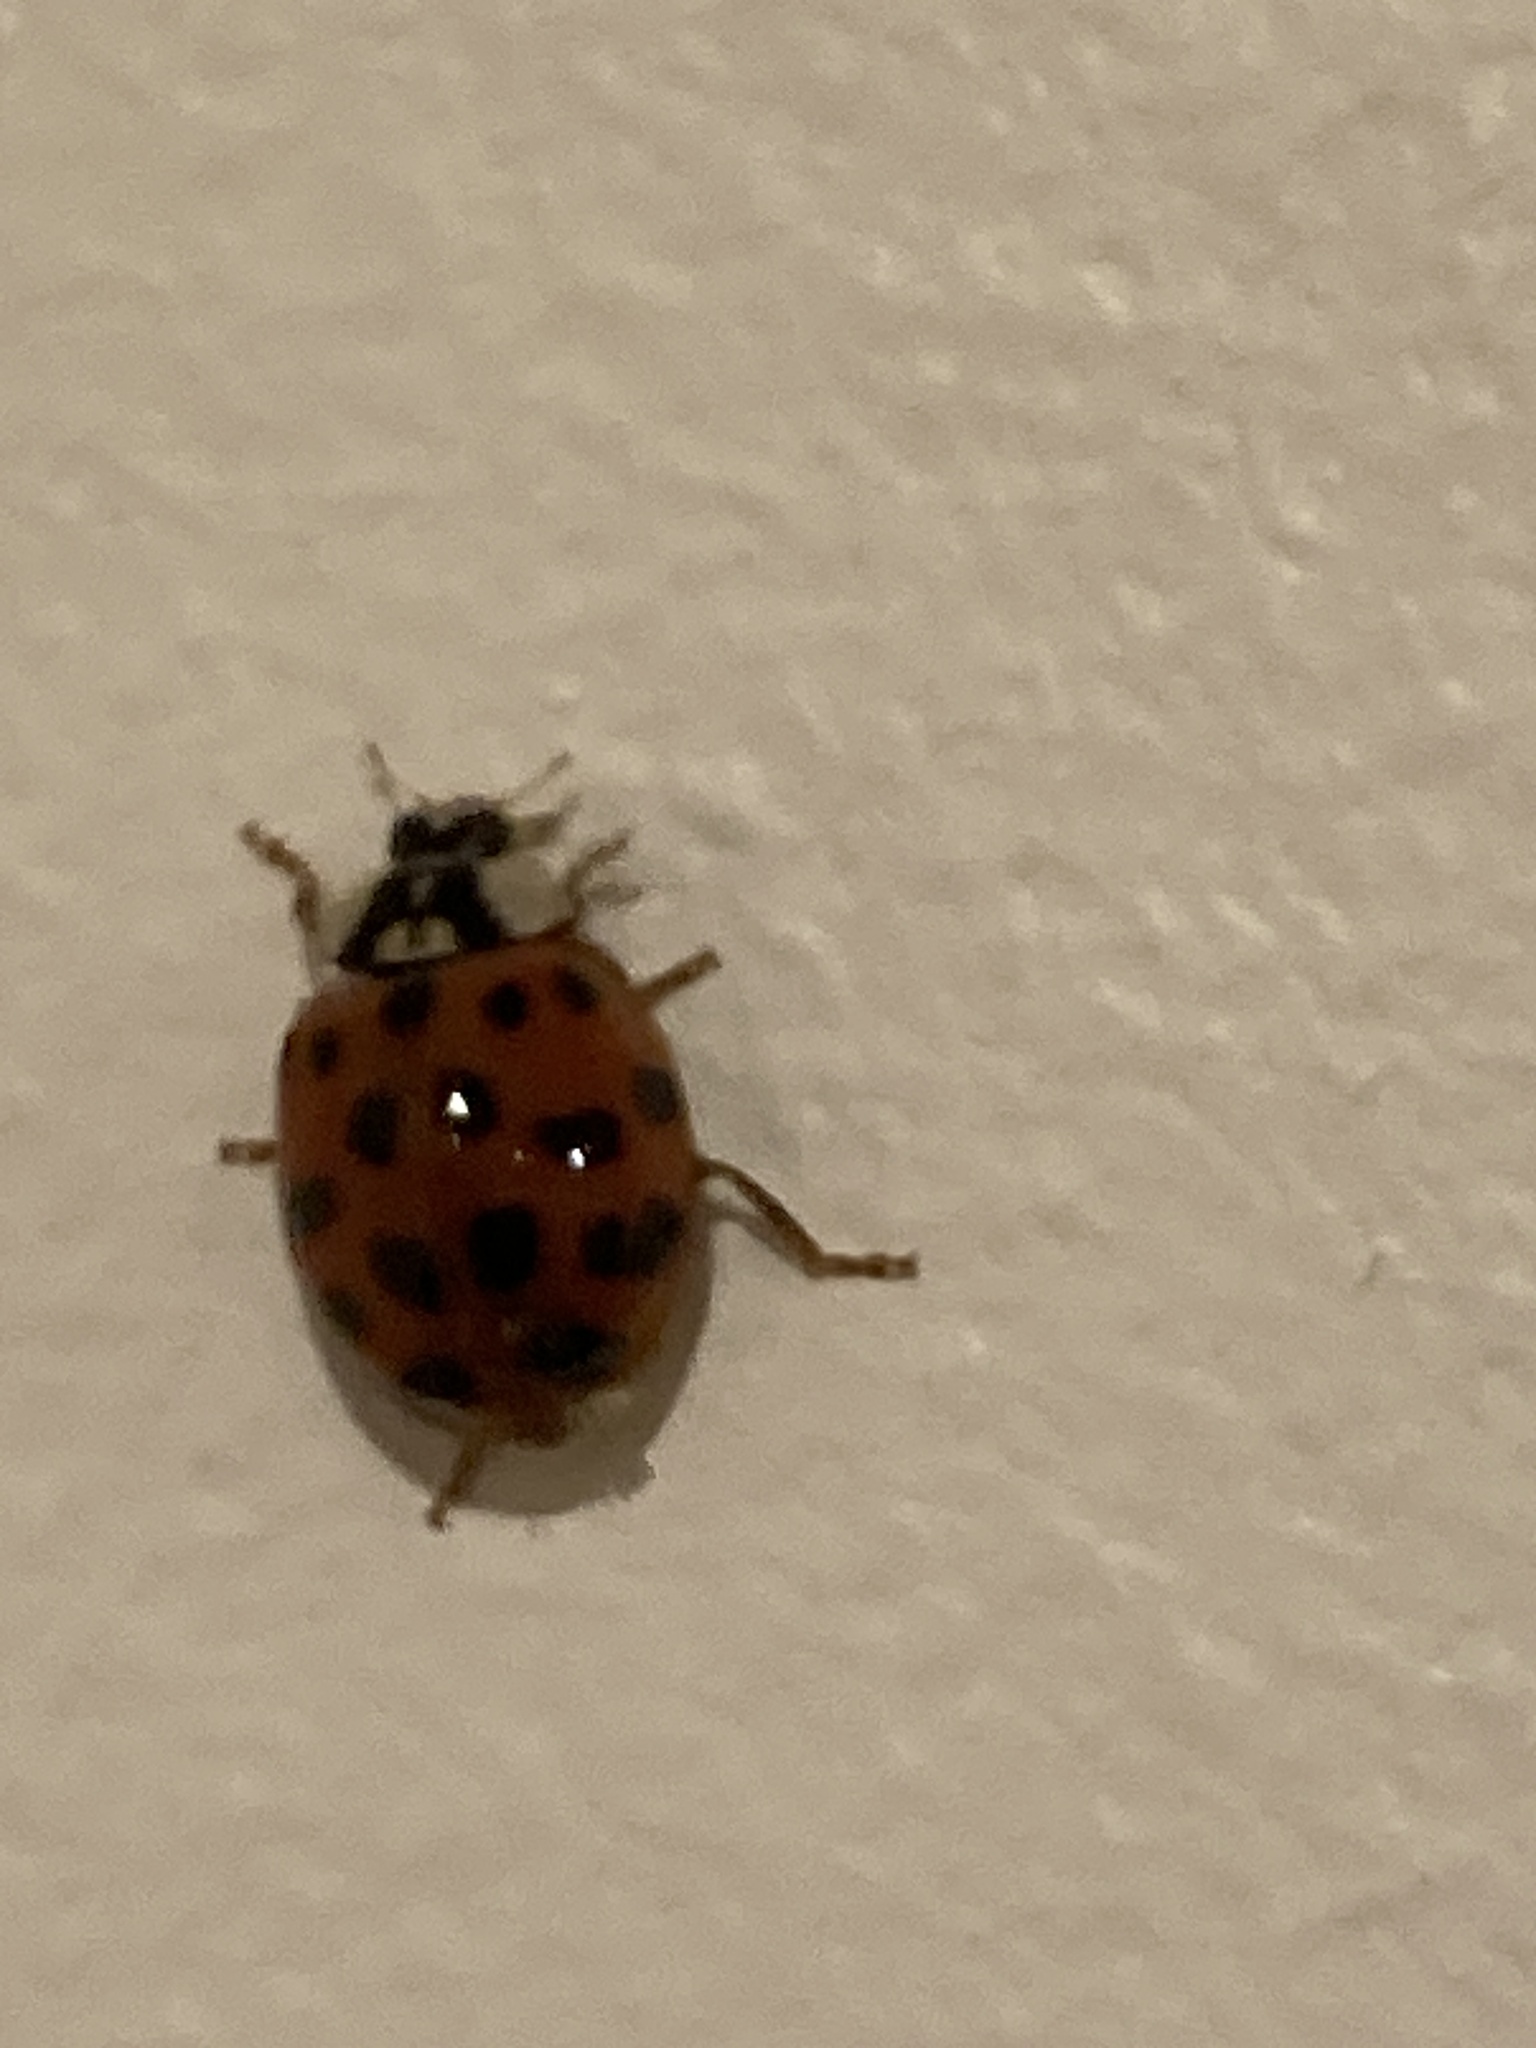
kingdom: Animalia
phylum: Arthropoda
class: Insecta
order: Coleoptera
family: Coccinellidae
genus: Harmonia
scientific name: Harmonia axyridis
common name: Harlequin ladybird
